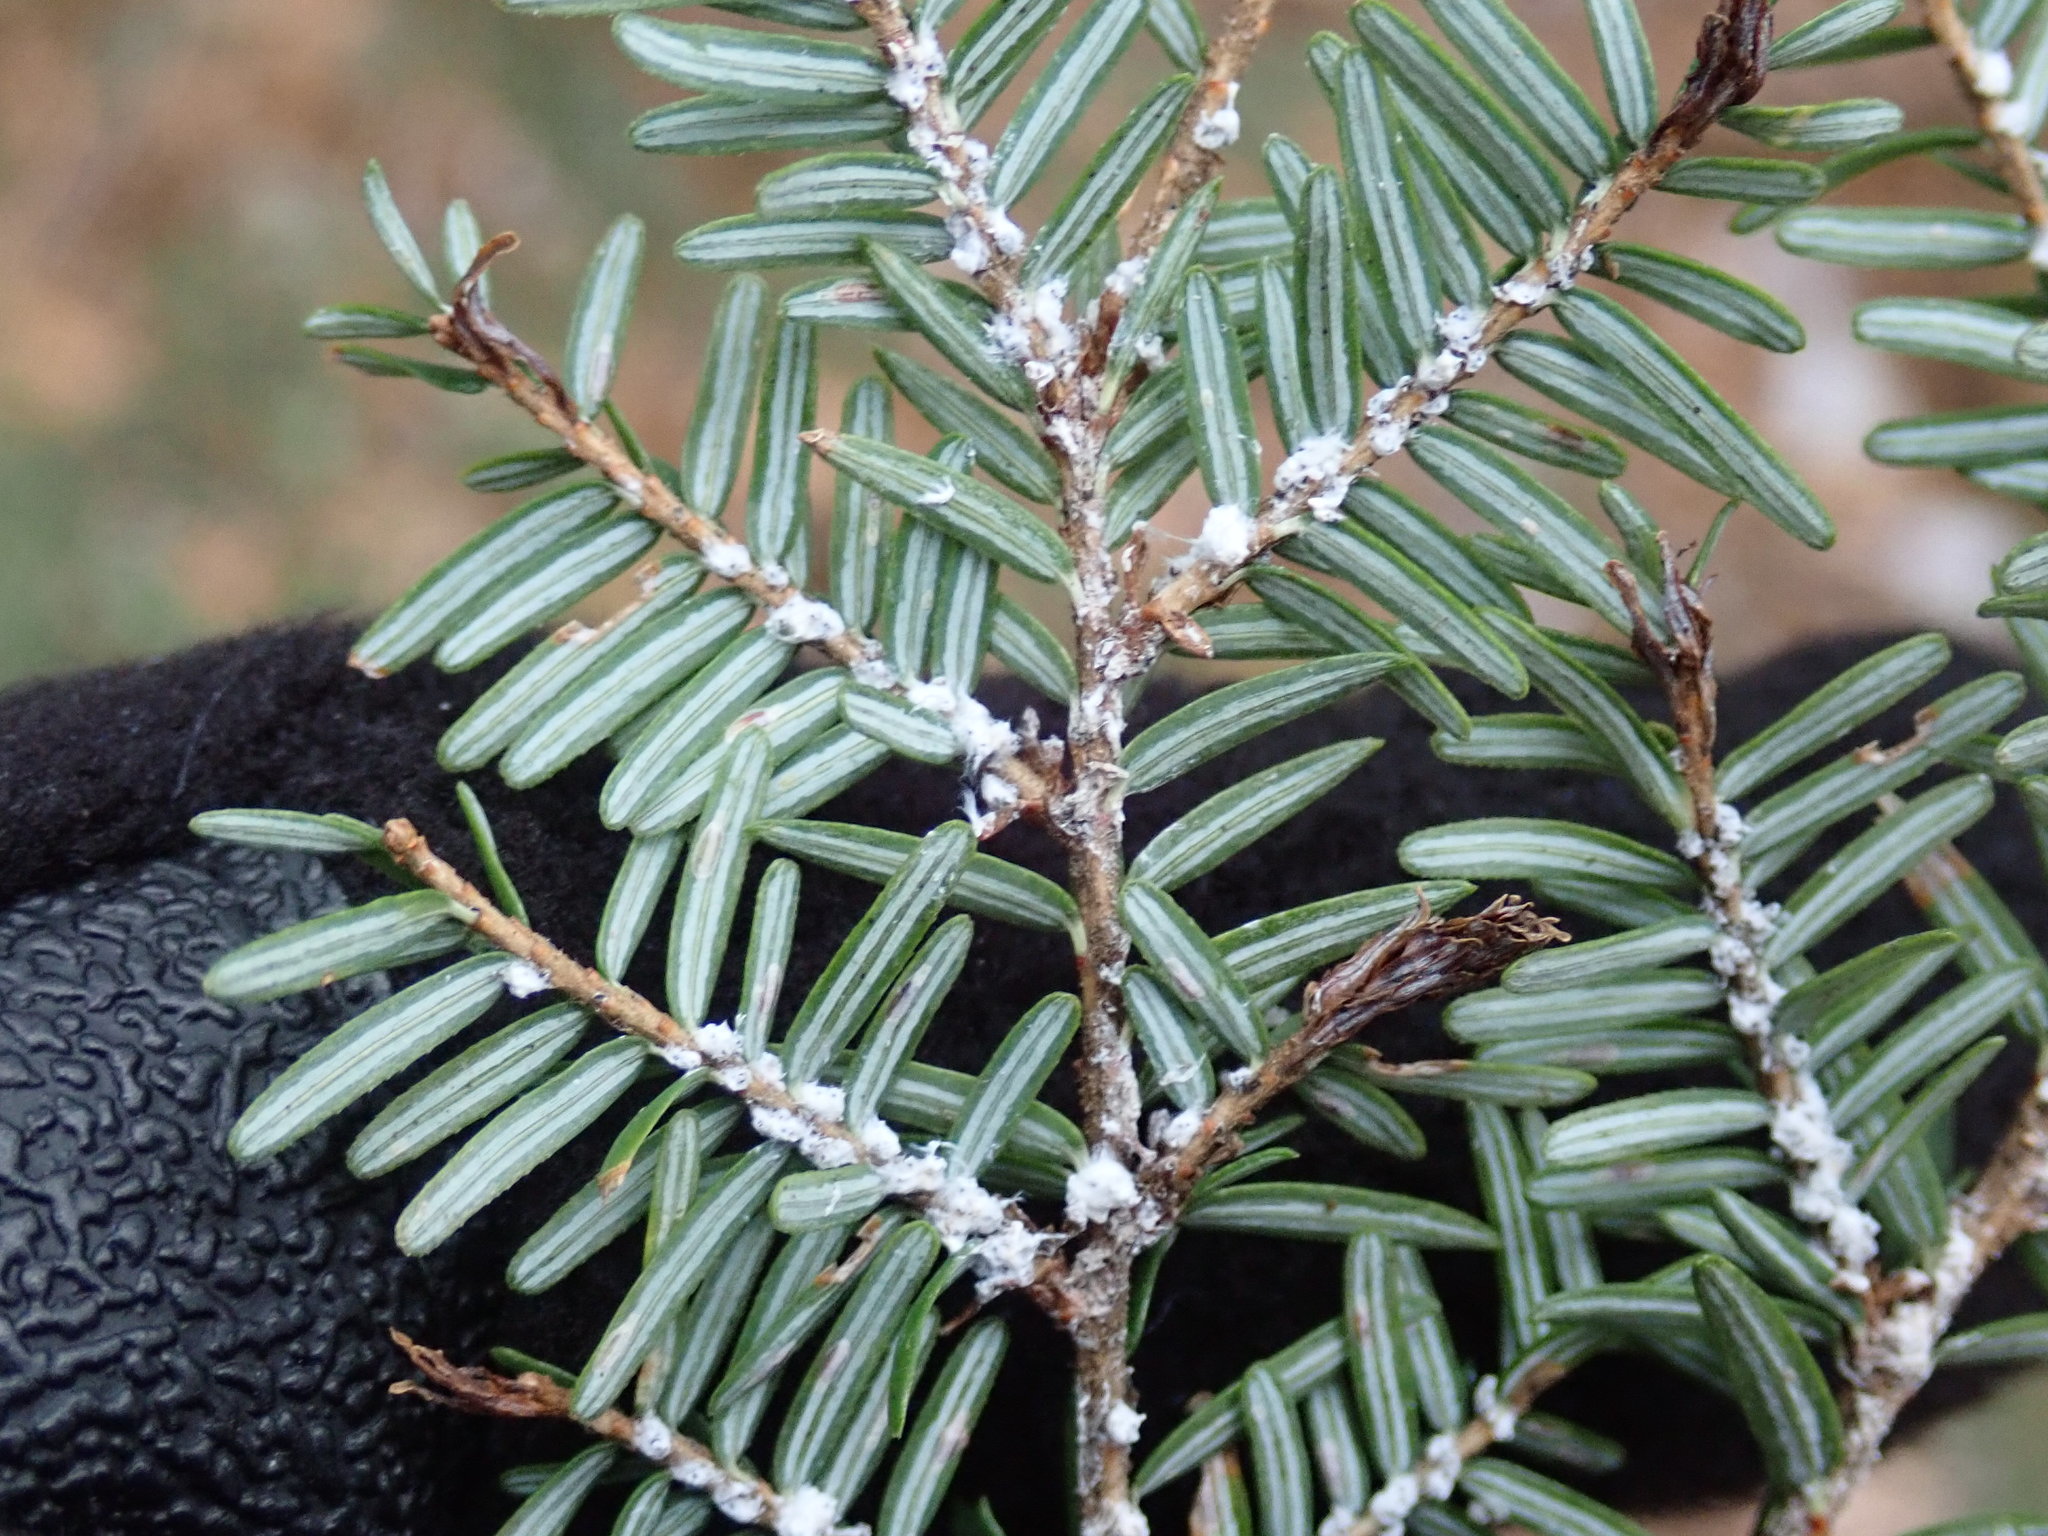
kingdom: Animalia
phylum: Arthropoda
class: Insecta
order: Hemiptera
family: Adelgidae
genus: Adelges
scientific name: Adelges tsugae
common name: Hemlock woolly adelgid
